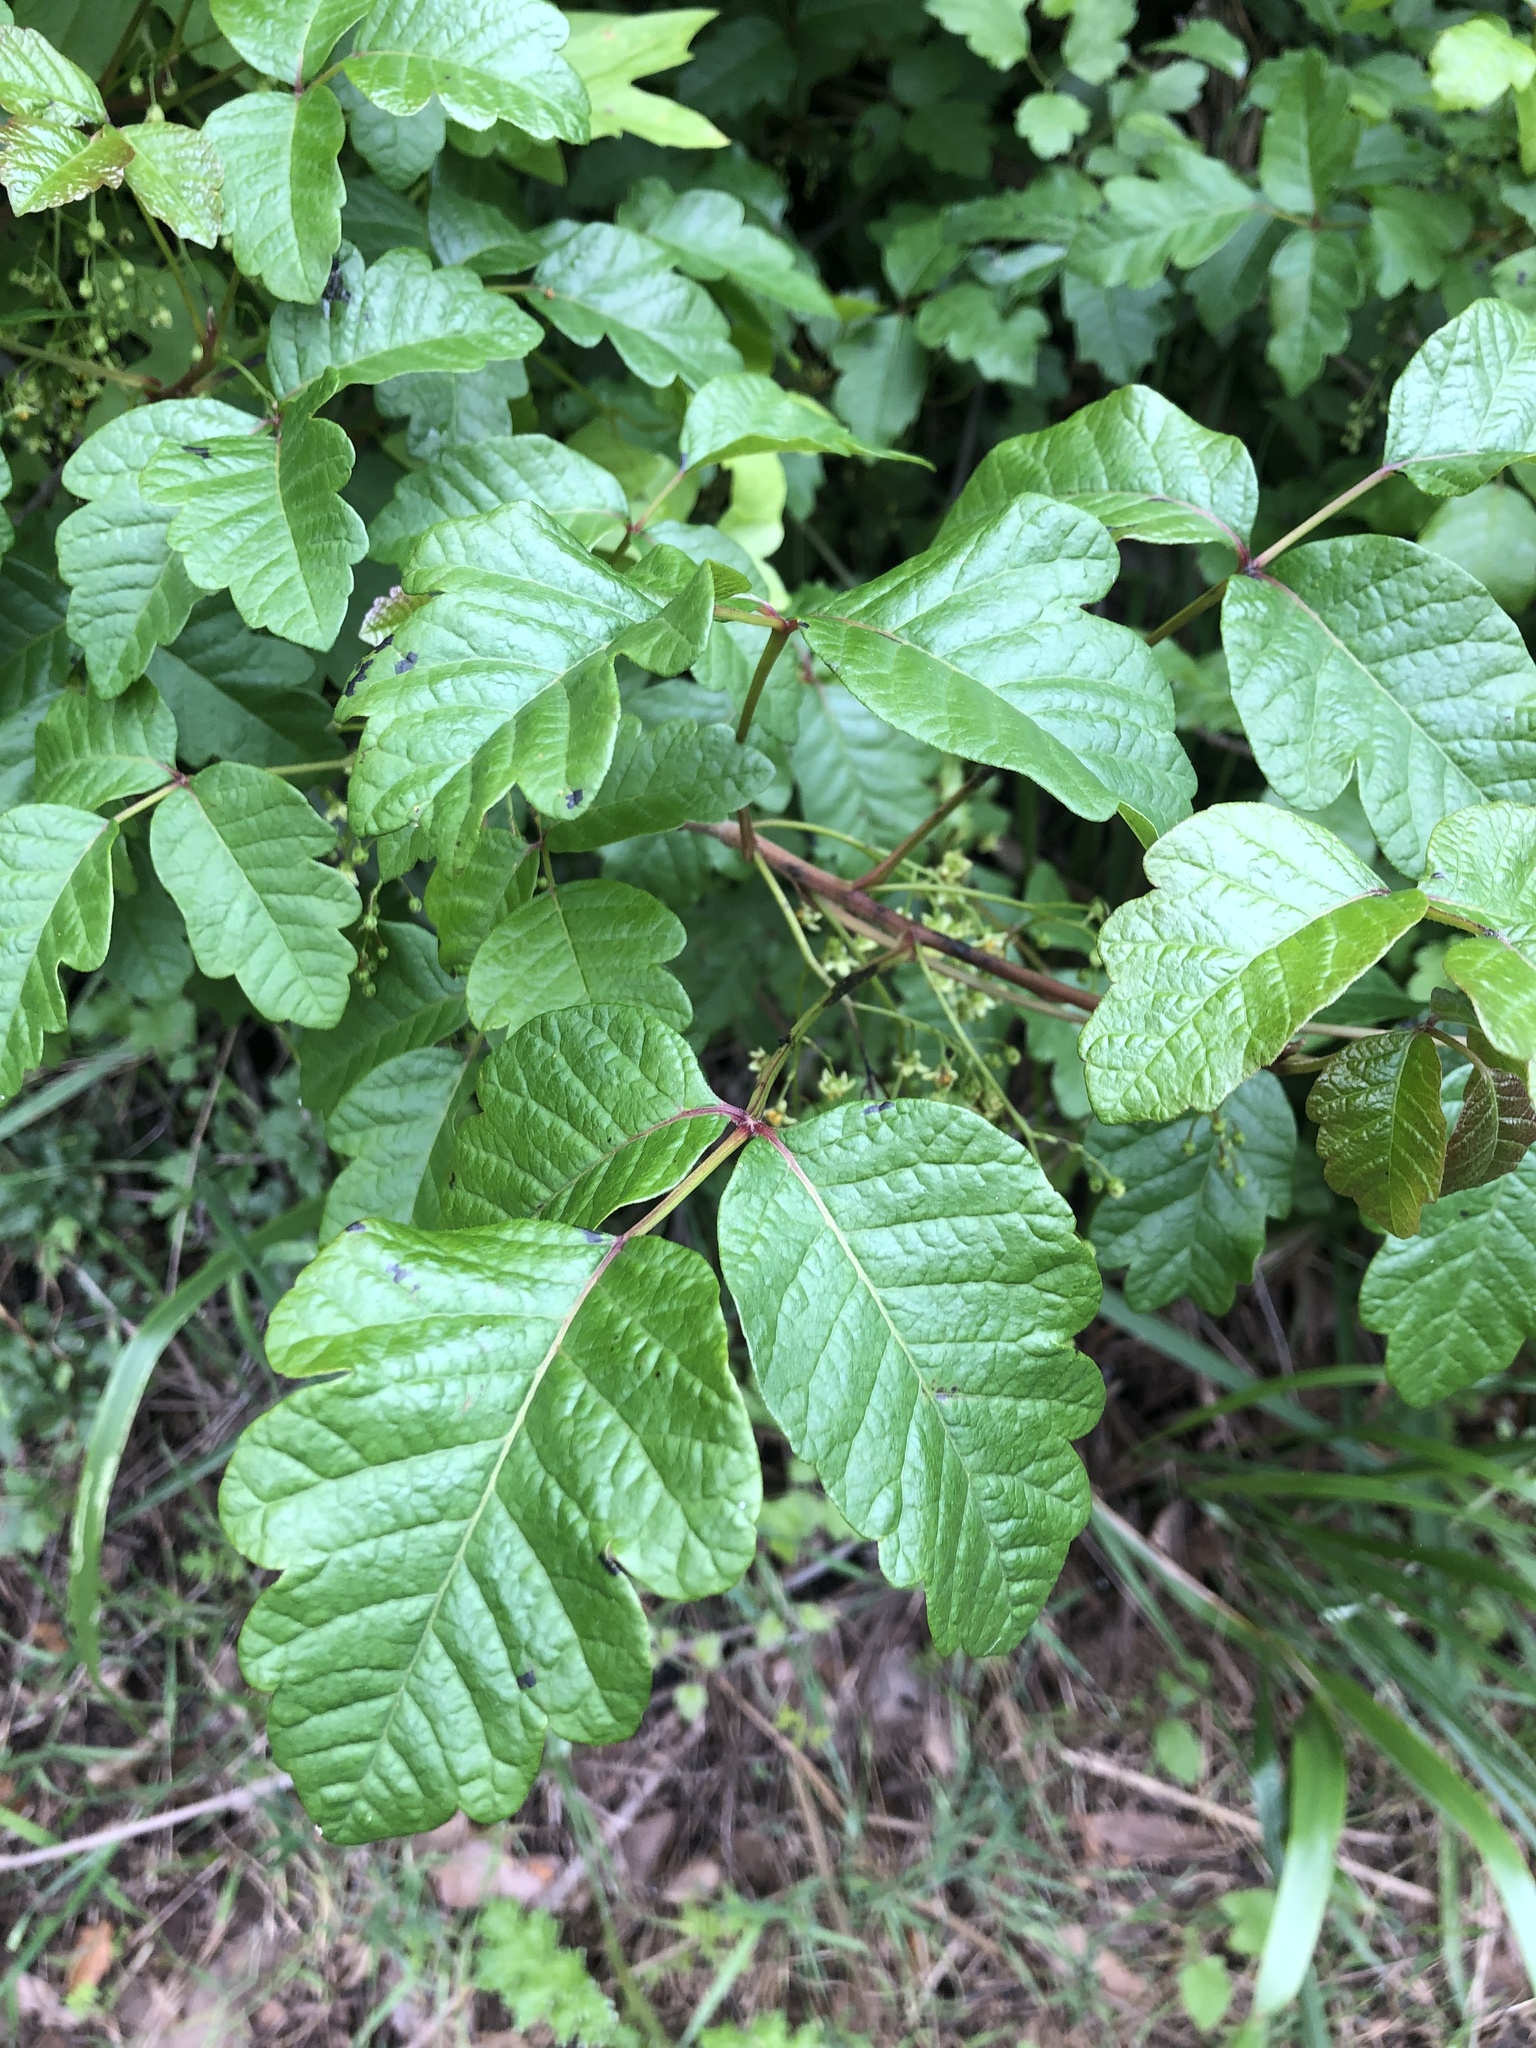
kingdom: Plantae
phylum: Tracheophyta
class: Magnoliopsida
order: Sapindales
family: Anacardiaceae
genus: Toxicodendron
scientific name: Toxicodendron diversilobum
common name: Pacific poison-oak
